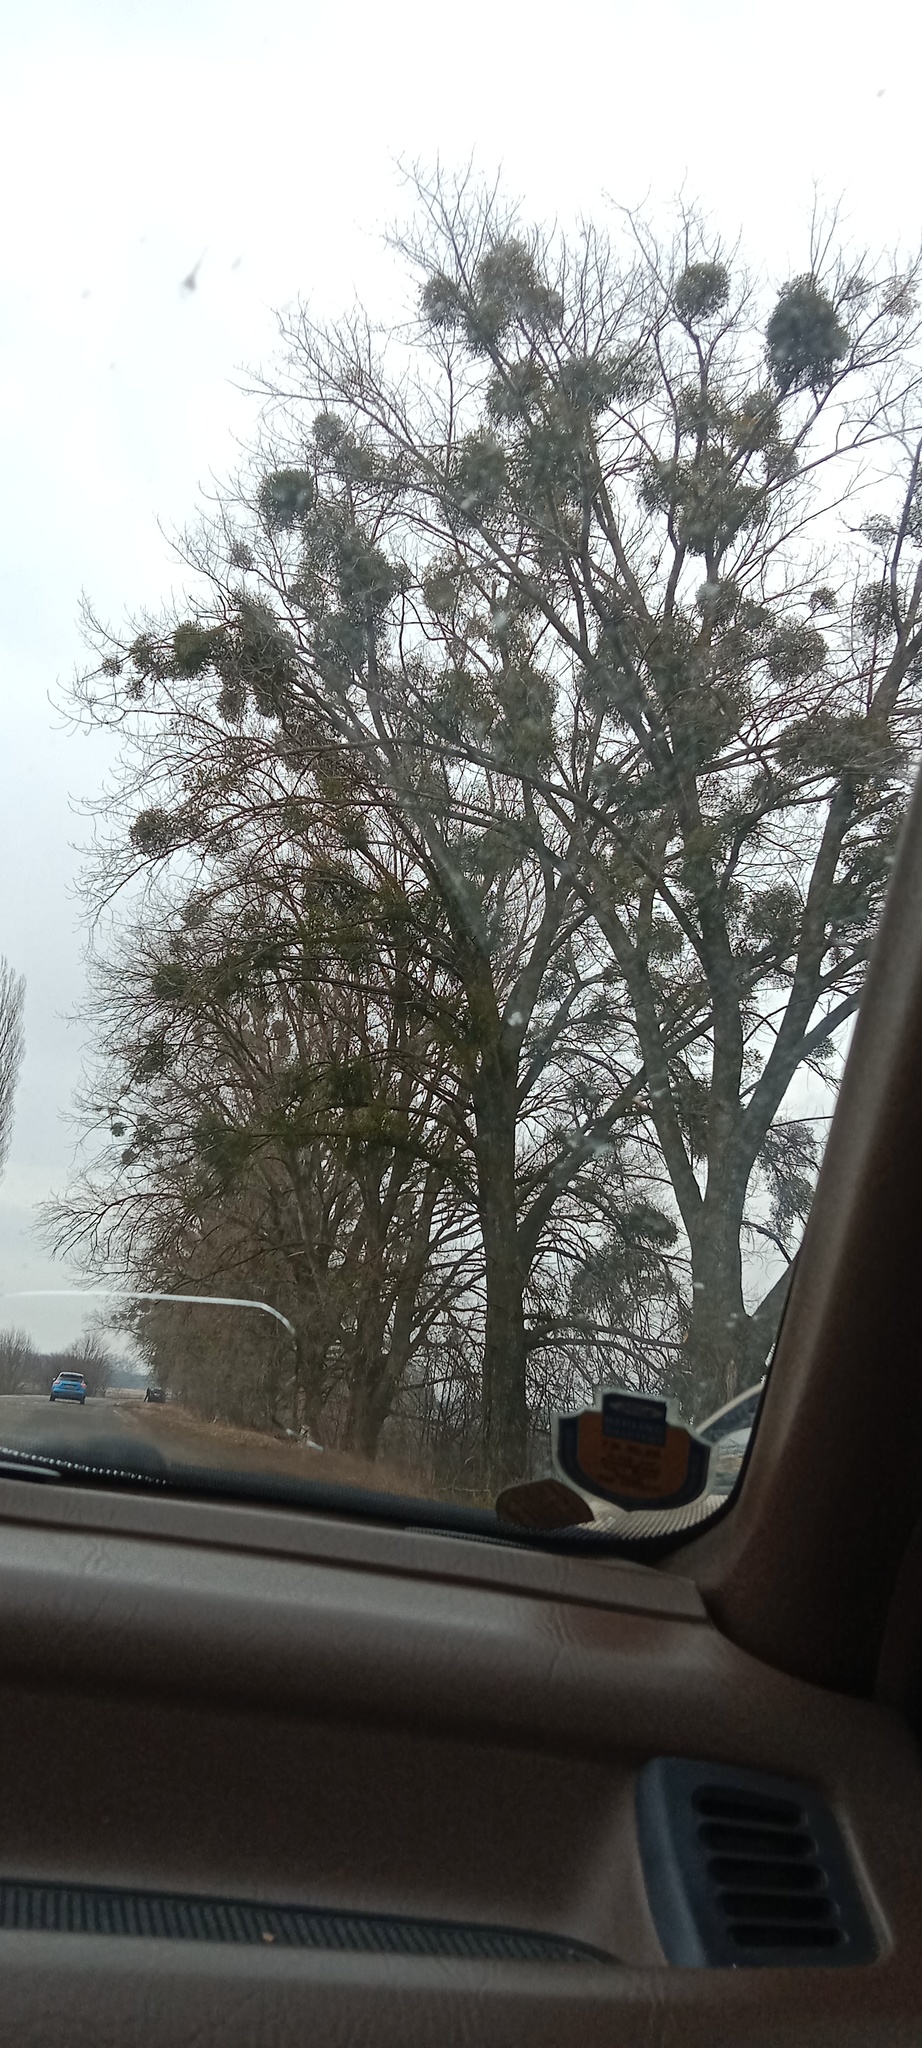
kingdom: Plantae
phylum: Tracheophyta
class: Magnoliopsida
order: Santalales
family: Viscaceae
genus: Viscum
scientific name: Viscum album
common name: Mistletoe
